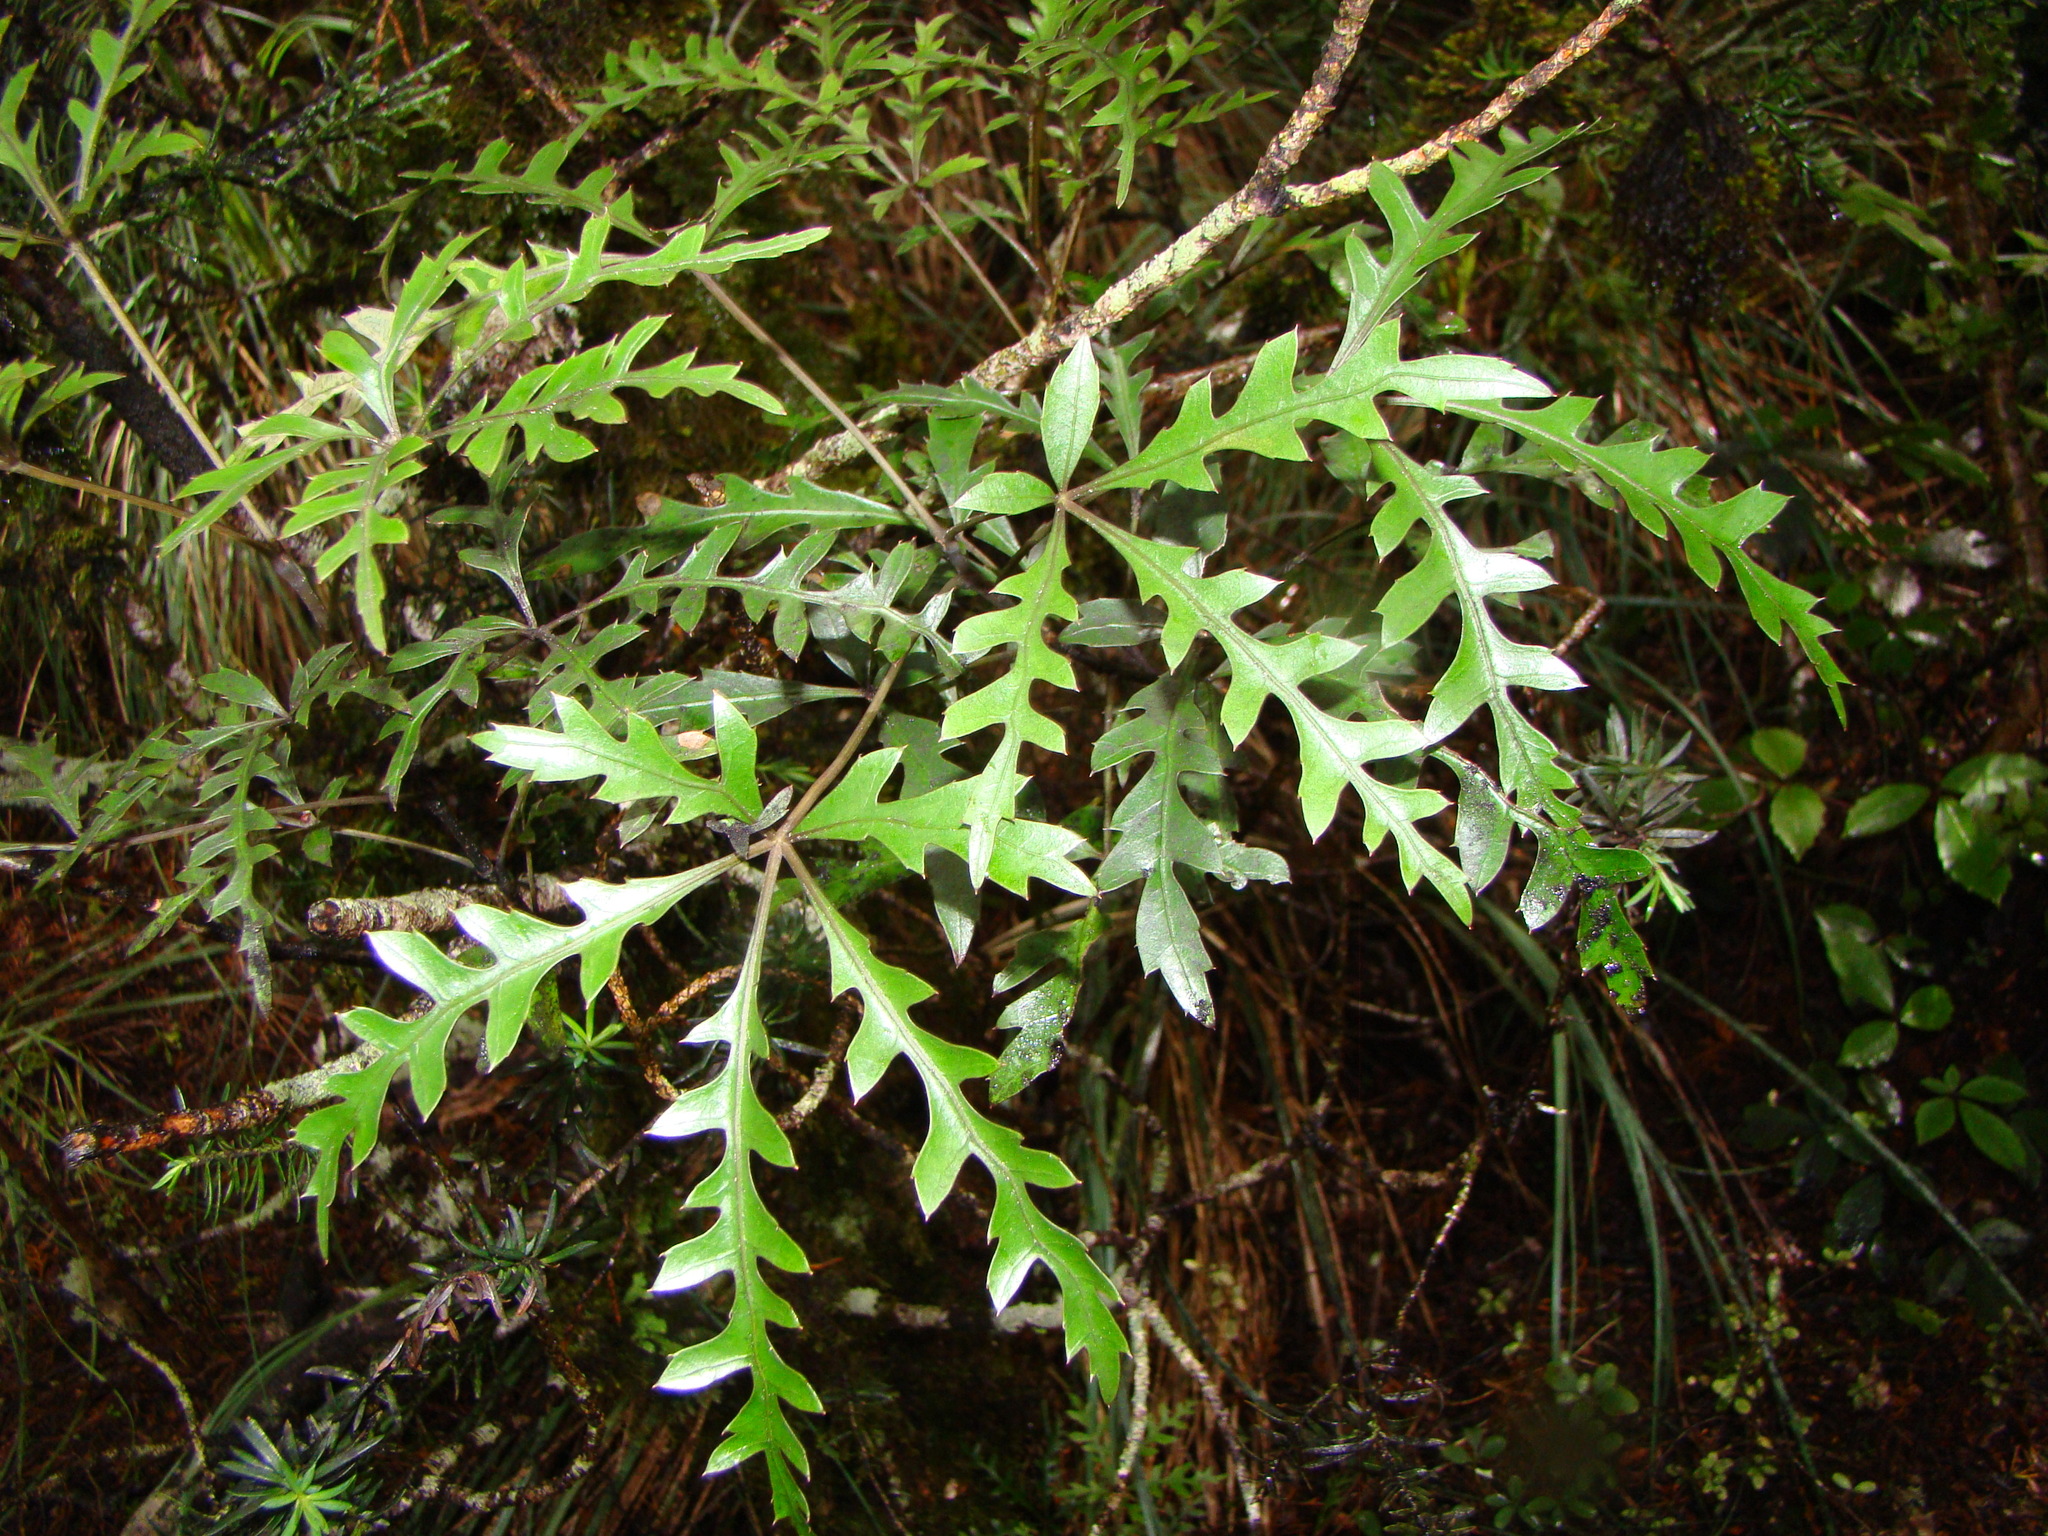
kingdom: Plantae
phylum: Tracheophyta
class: Magnoliopsida
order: Apiales
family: Araliaceae
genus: Raukaua
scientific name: Raukaua simplex
